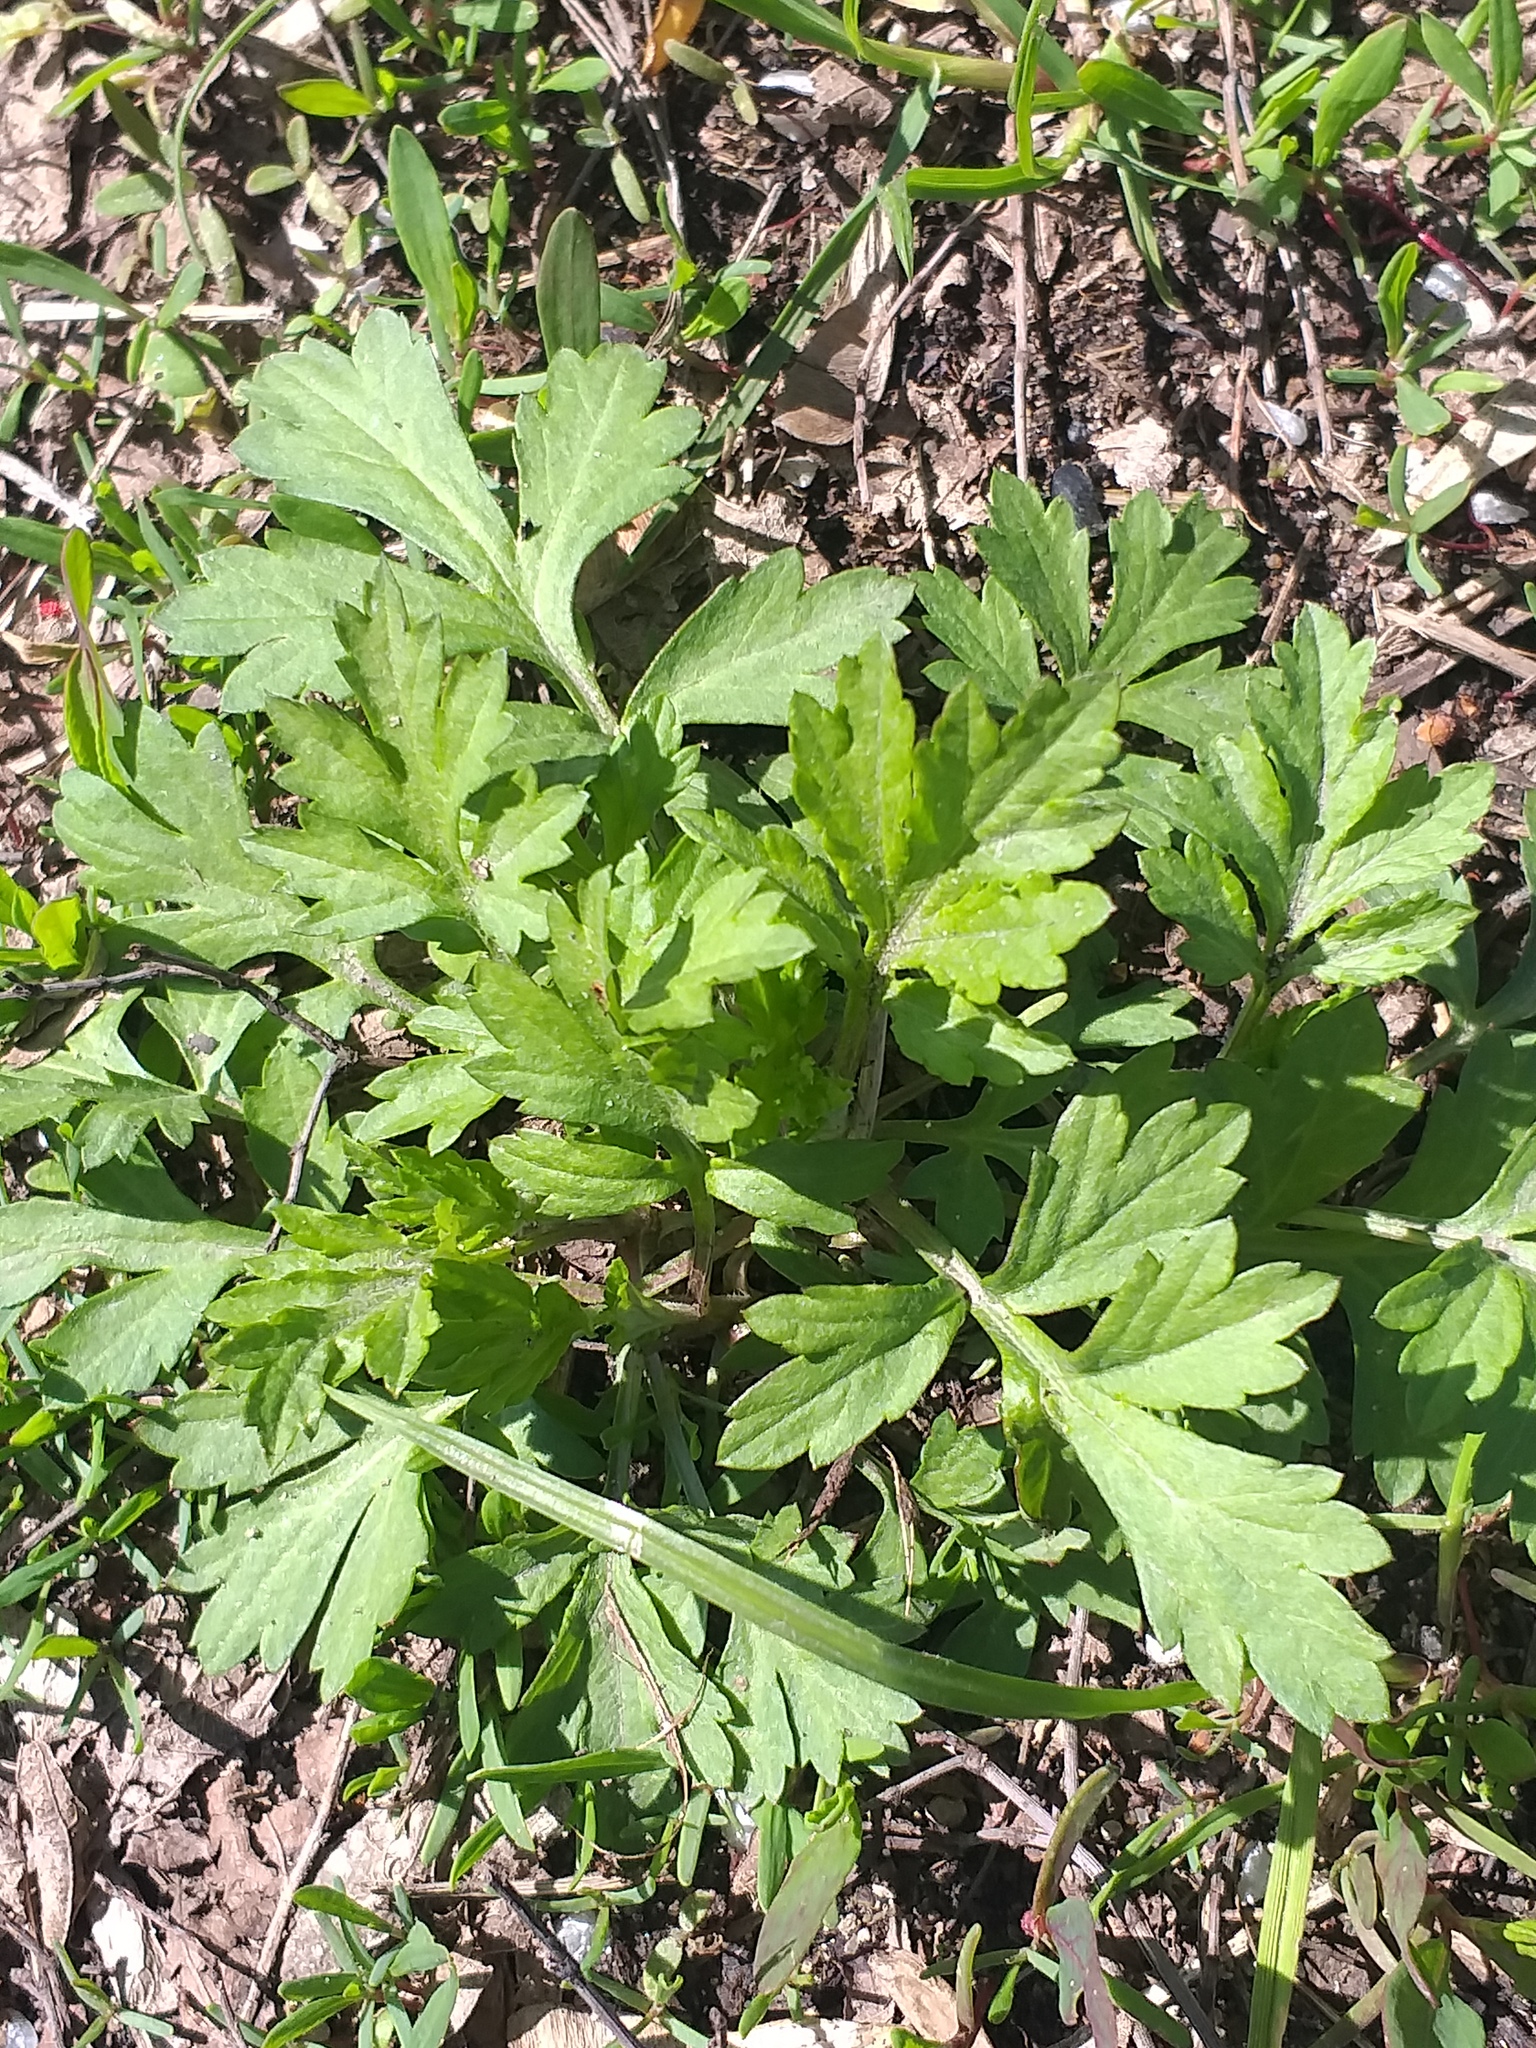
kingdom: Plantae
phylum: Tracheophyta
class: Magnoliopsida
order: Asterales
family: Asteraceae
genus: Artemisia
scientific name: Artemisia vulgaris
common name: Mugwort
